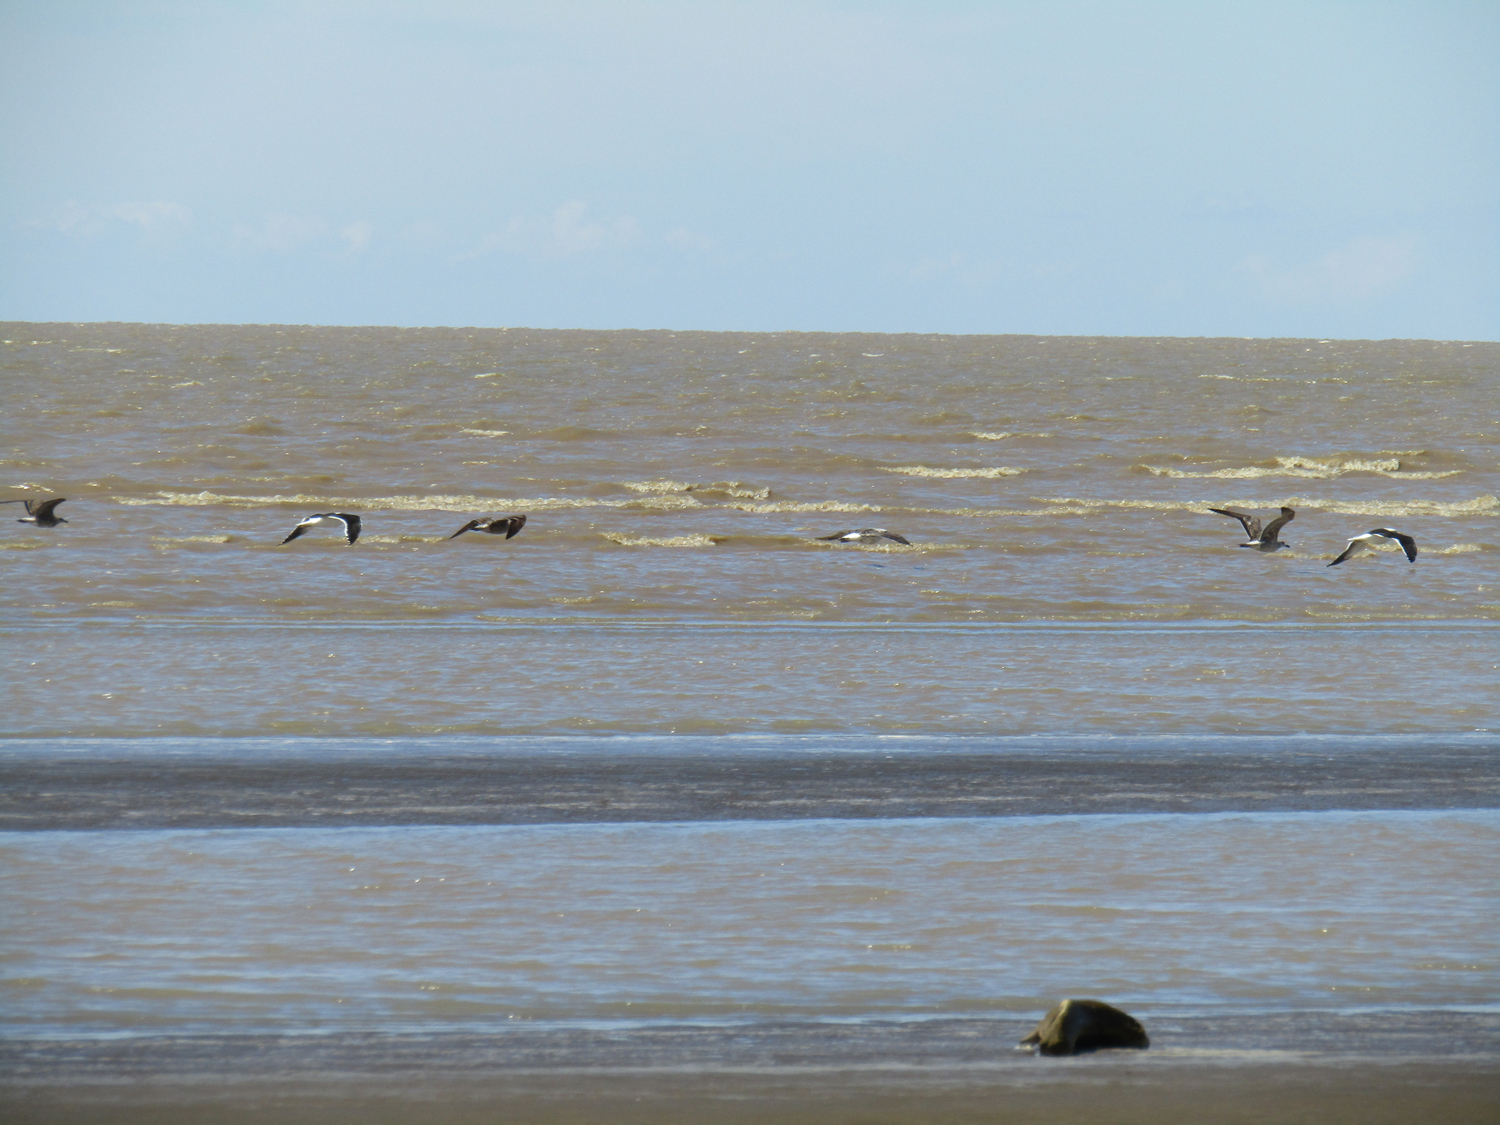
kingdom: Animalia
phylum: Chordata
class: Aves
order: Charadriiformes
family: Laridae
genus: Larus
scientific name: Larus dominicanus
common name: Kelp gull
